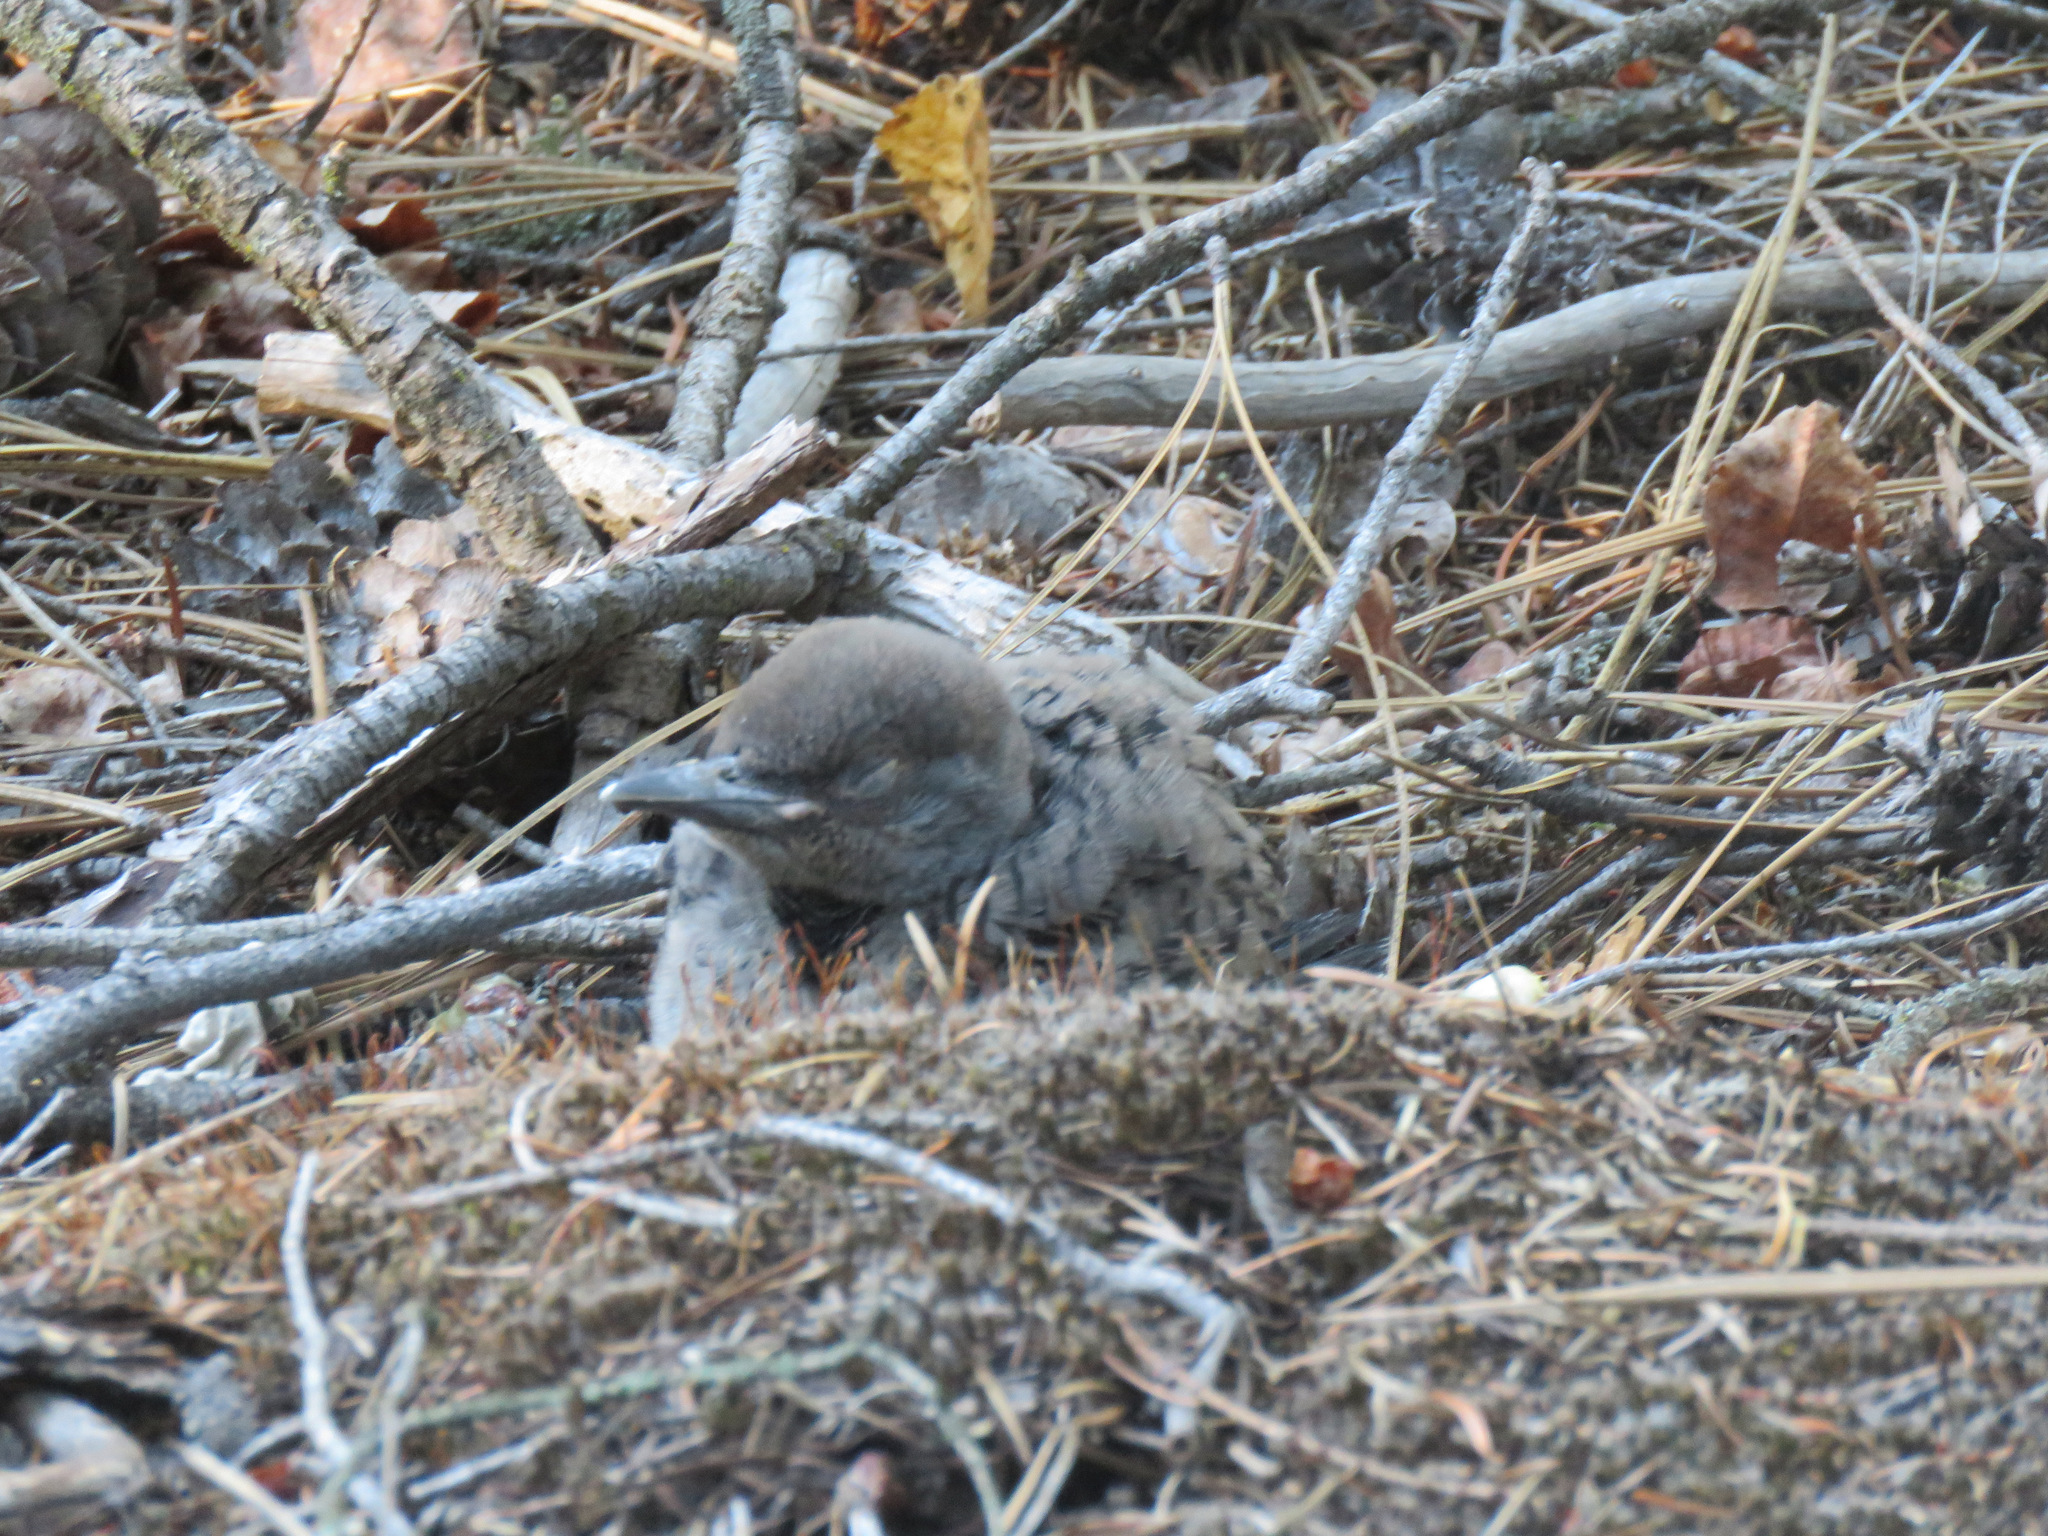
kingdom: Animalia
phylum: Chordata
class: Aves
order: Piciformes
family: Picidae
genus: Colaptes
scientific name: Colaptes auratus
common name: Northern flicker
